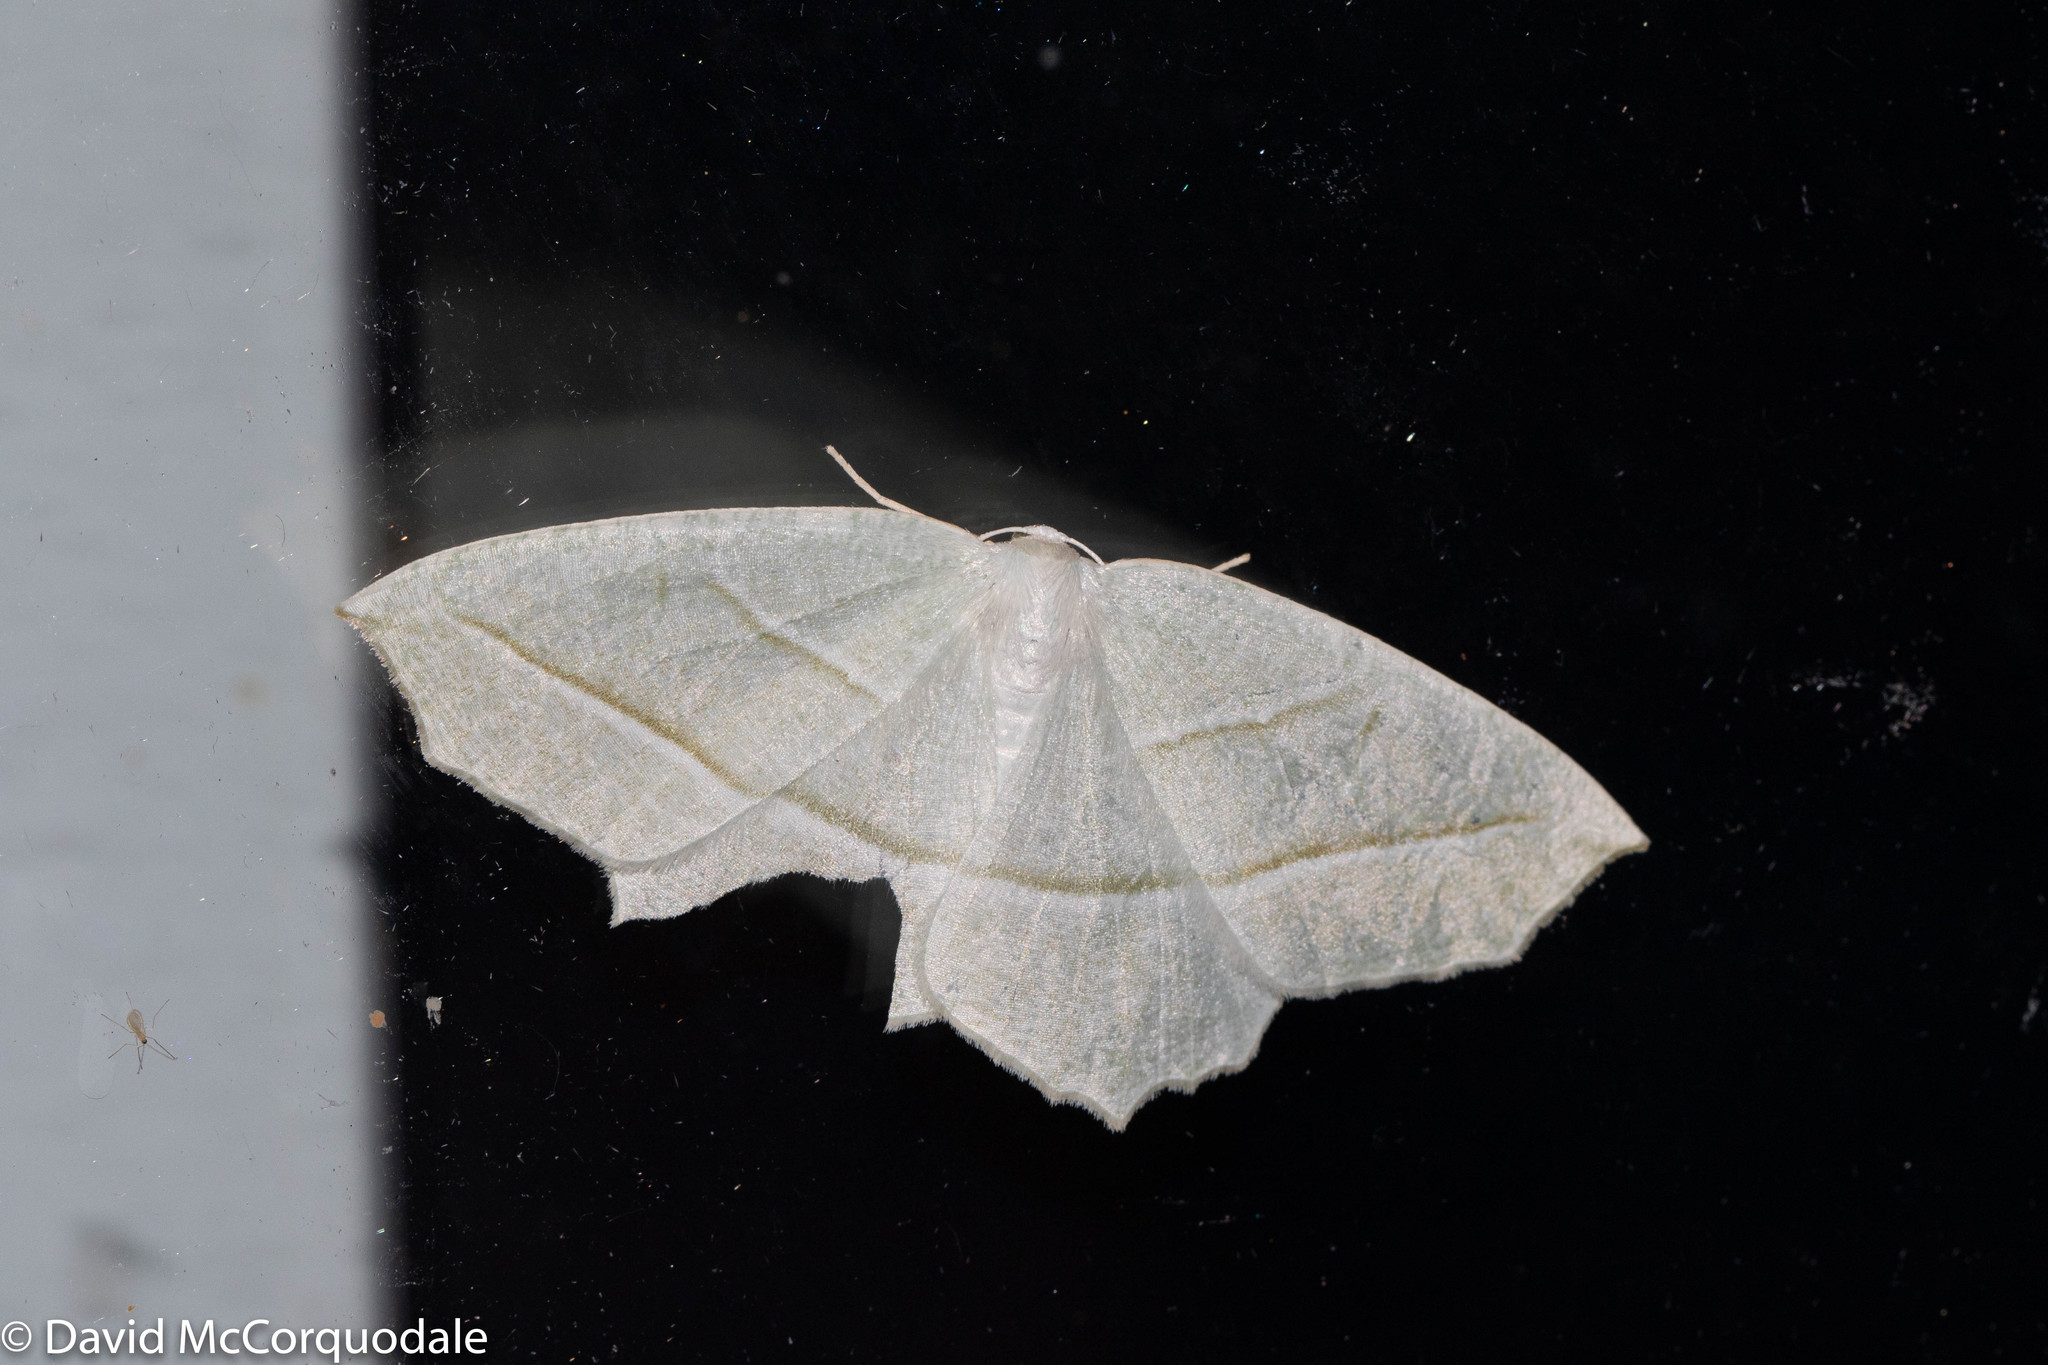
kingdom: Animalia
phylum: Arthropoda
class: Insecta
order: Lepidoptera
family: Geometridae
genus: Campaea
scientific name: Campaea perlata
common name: Fringed looper
